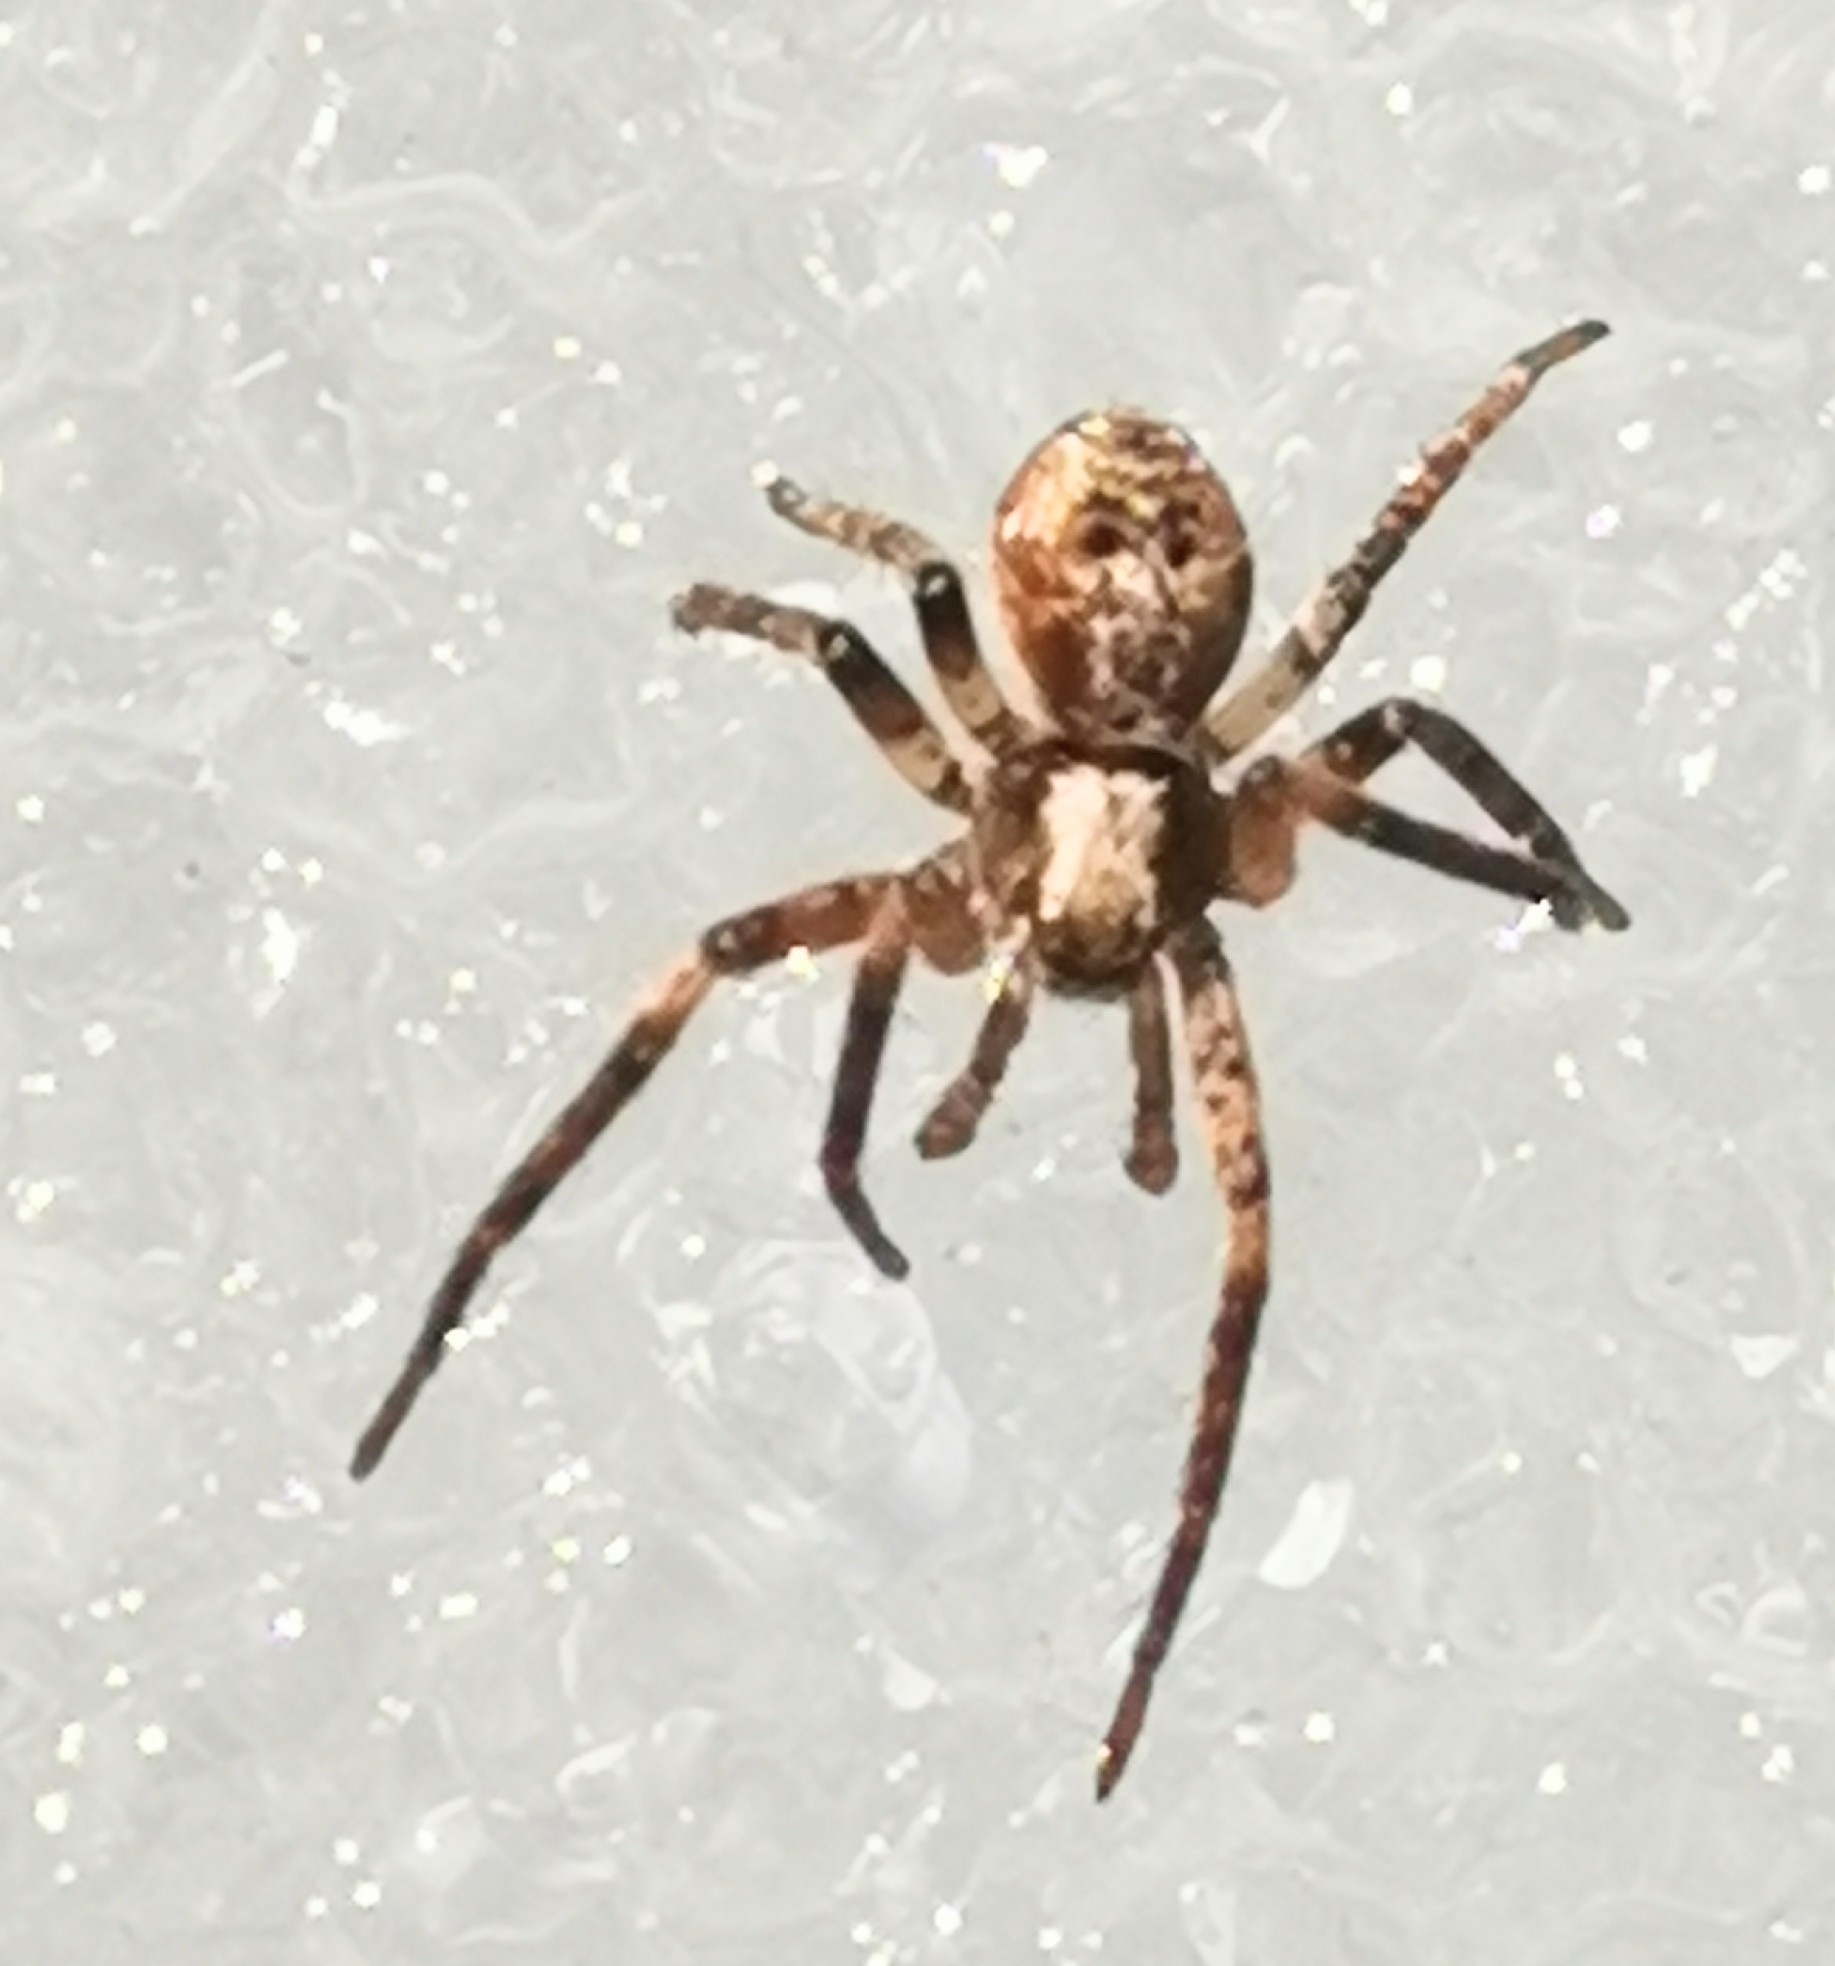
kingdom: Animalia
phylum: Arthropoda
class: Arachnida
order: Araneae
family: Philodromidae
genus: Philodromus
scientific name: Philodromus
